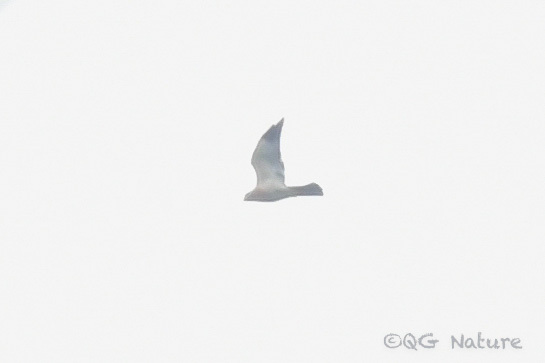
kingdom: Animalia
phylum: Chordata
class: Aves
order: Accipitriformes
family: Accipitridae
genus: Accipiter
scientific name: Accipiter soloensis
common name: Chinese sparrowhawk
